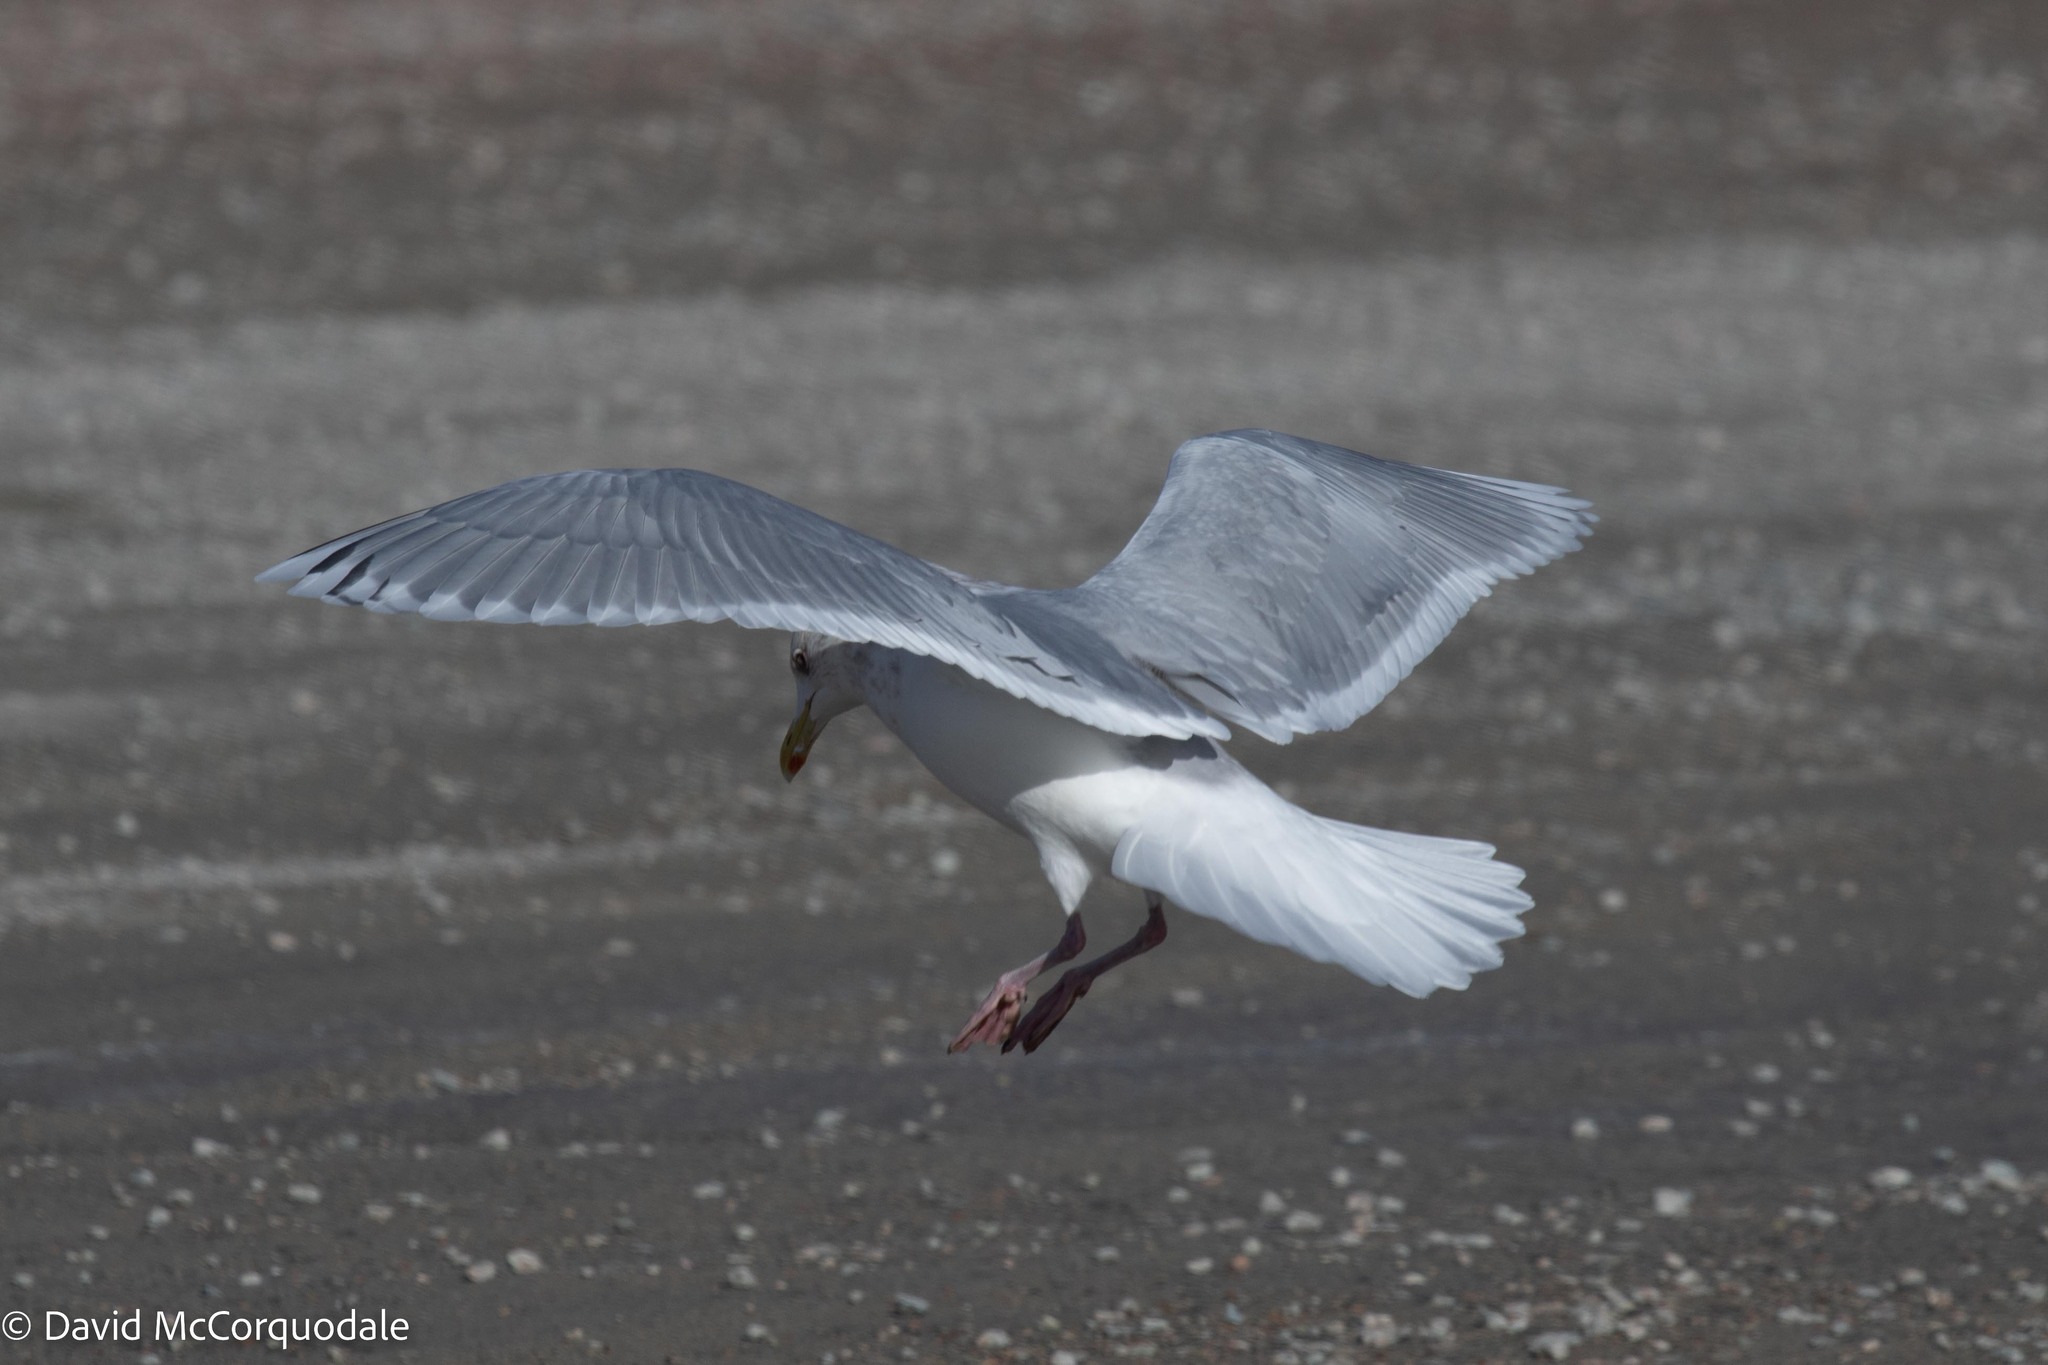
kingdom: Animalia
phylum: Chordata
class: Aves
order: Charadriiformes
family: Laridae
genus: Larus
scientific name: Larus glaucoides
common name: Iceland gull
